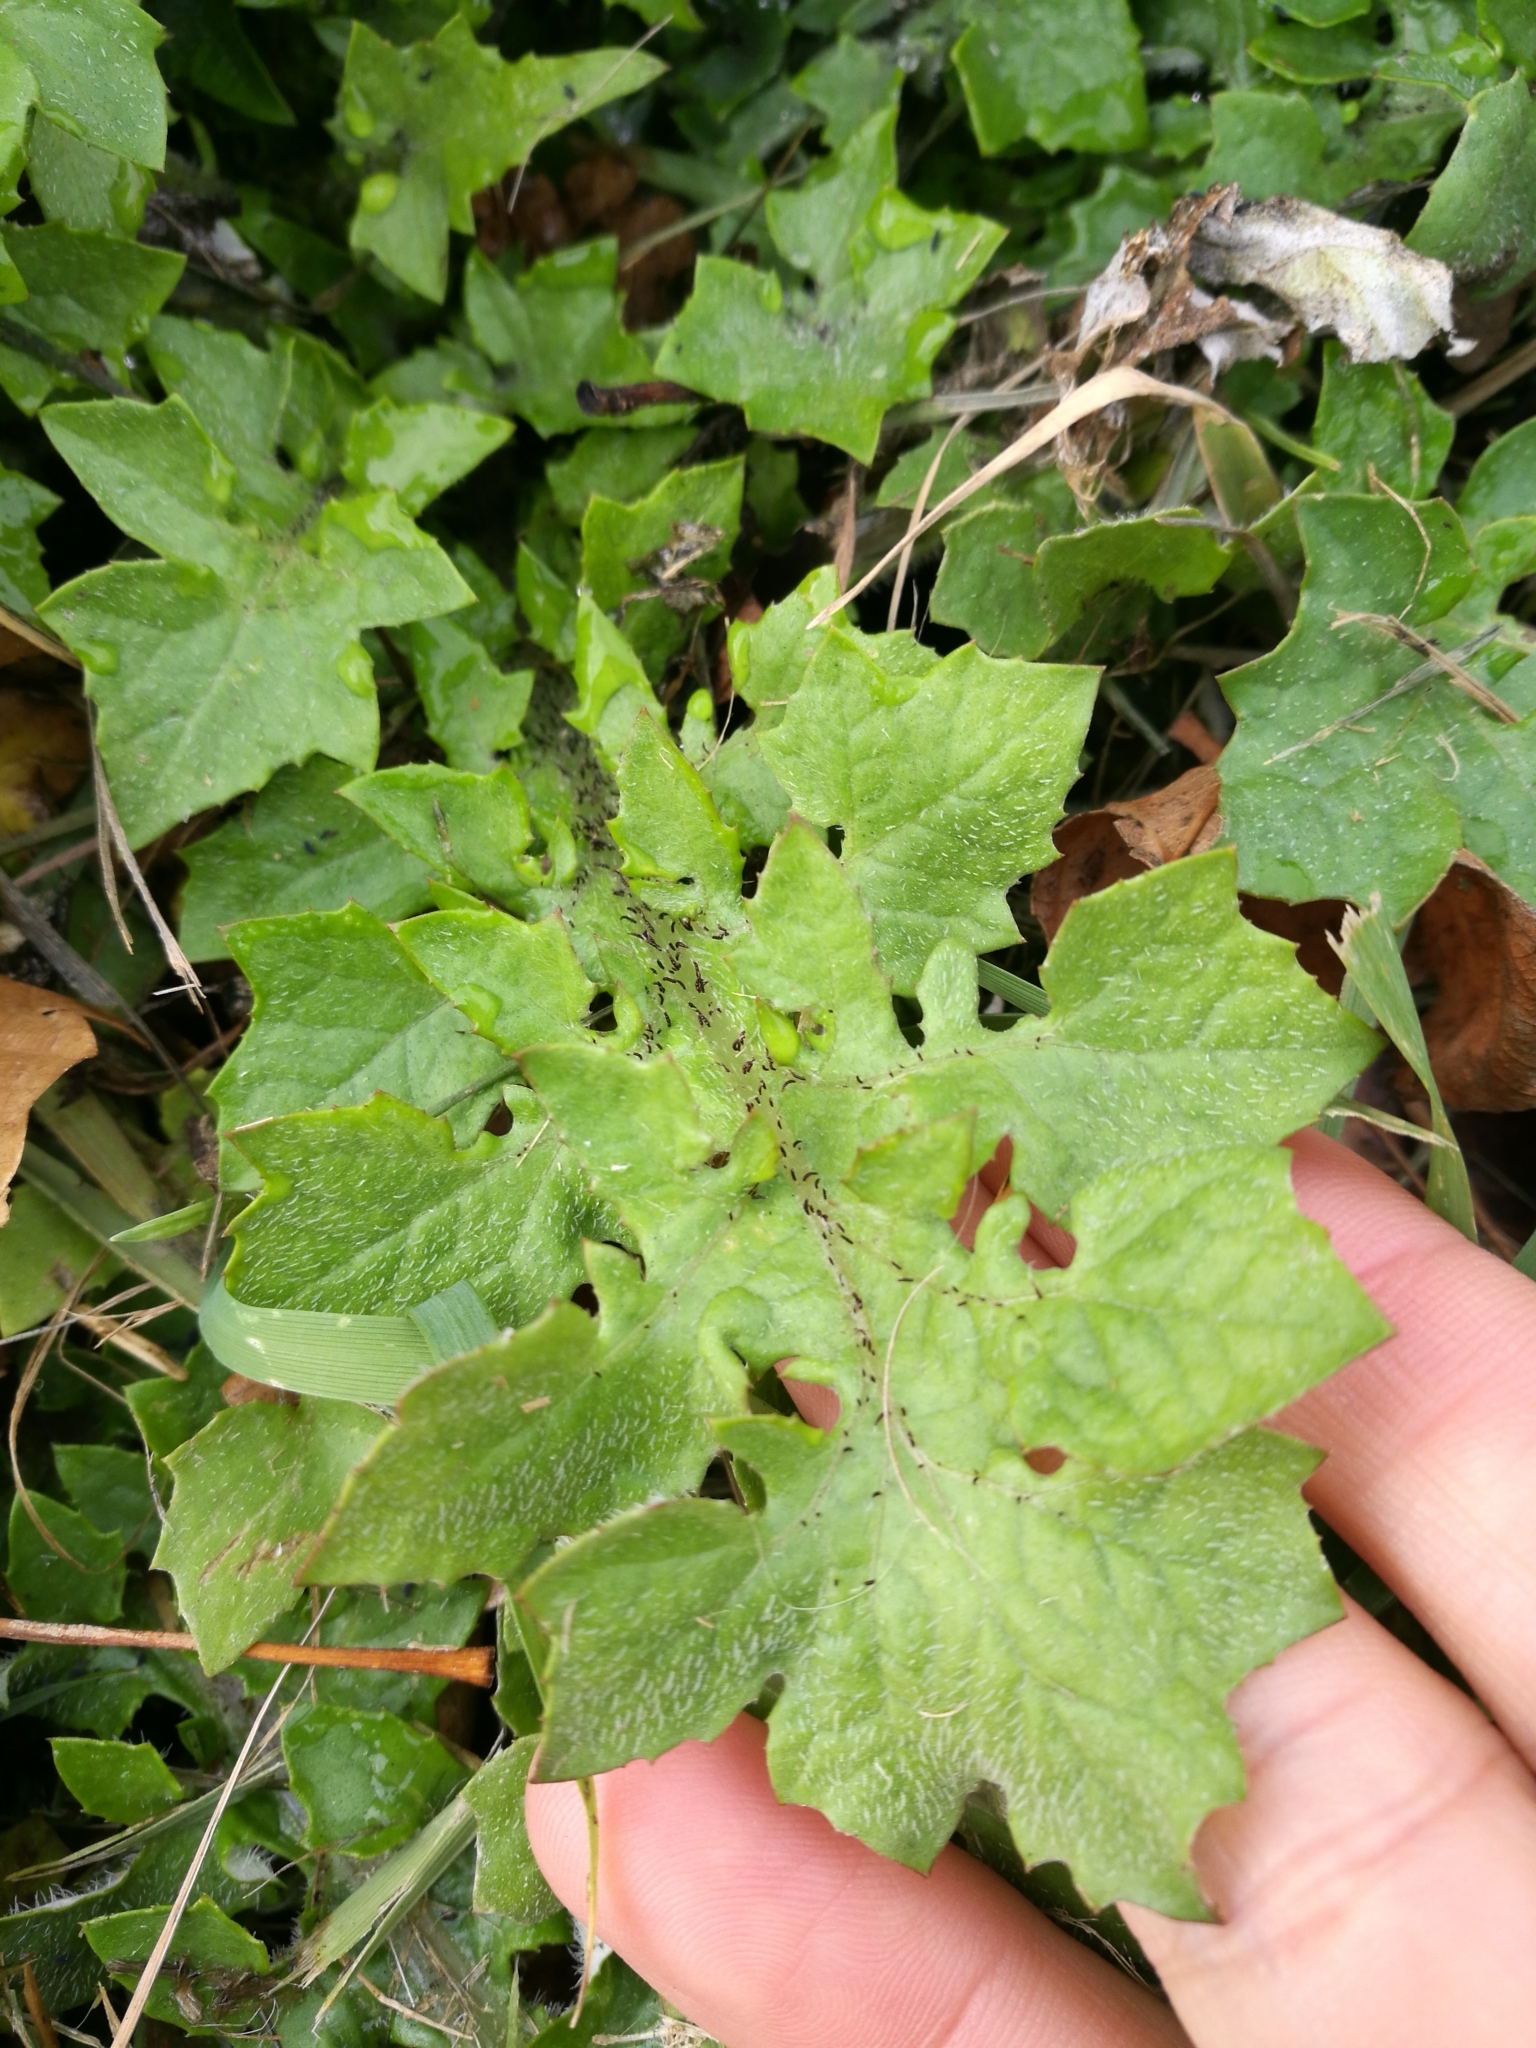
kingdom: Plantae
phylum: Tracheophyta
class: Magnoliopsida
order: Asterales
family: Asteraceae
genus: Arctotheca
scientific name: Arctotheca calendula
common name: Capeweed
